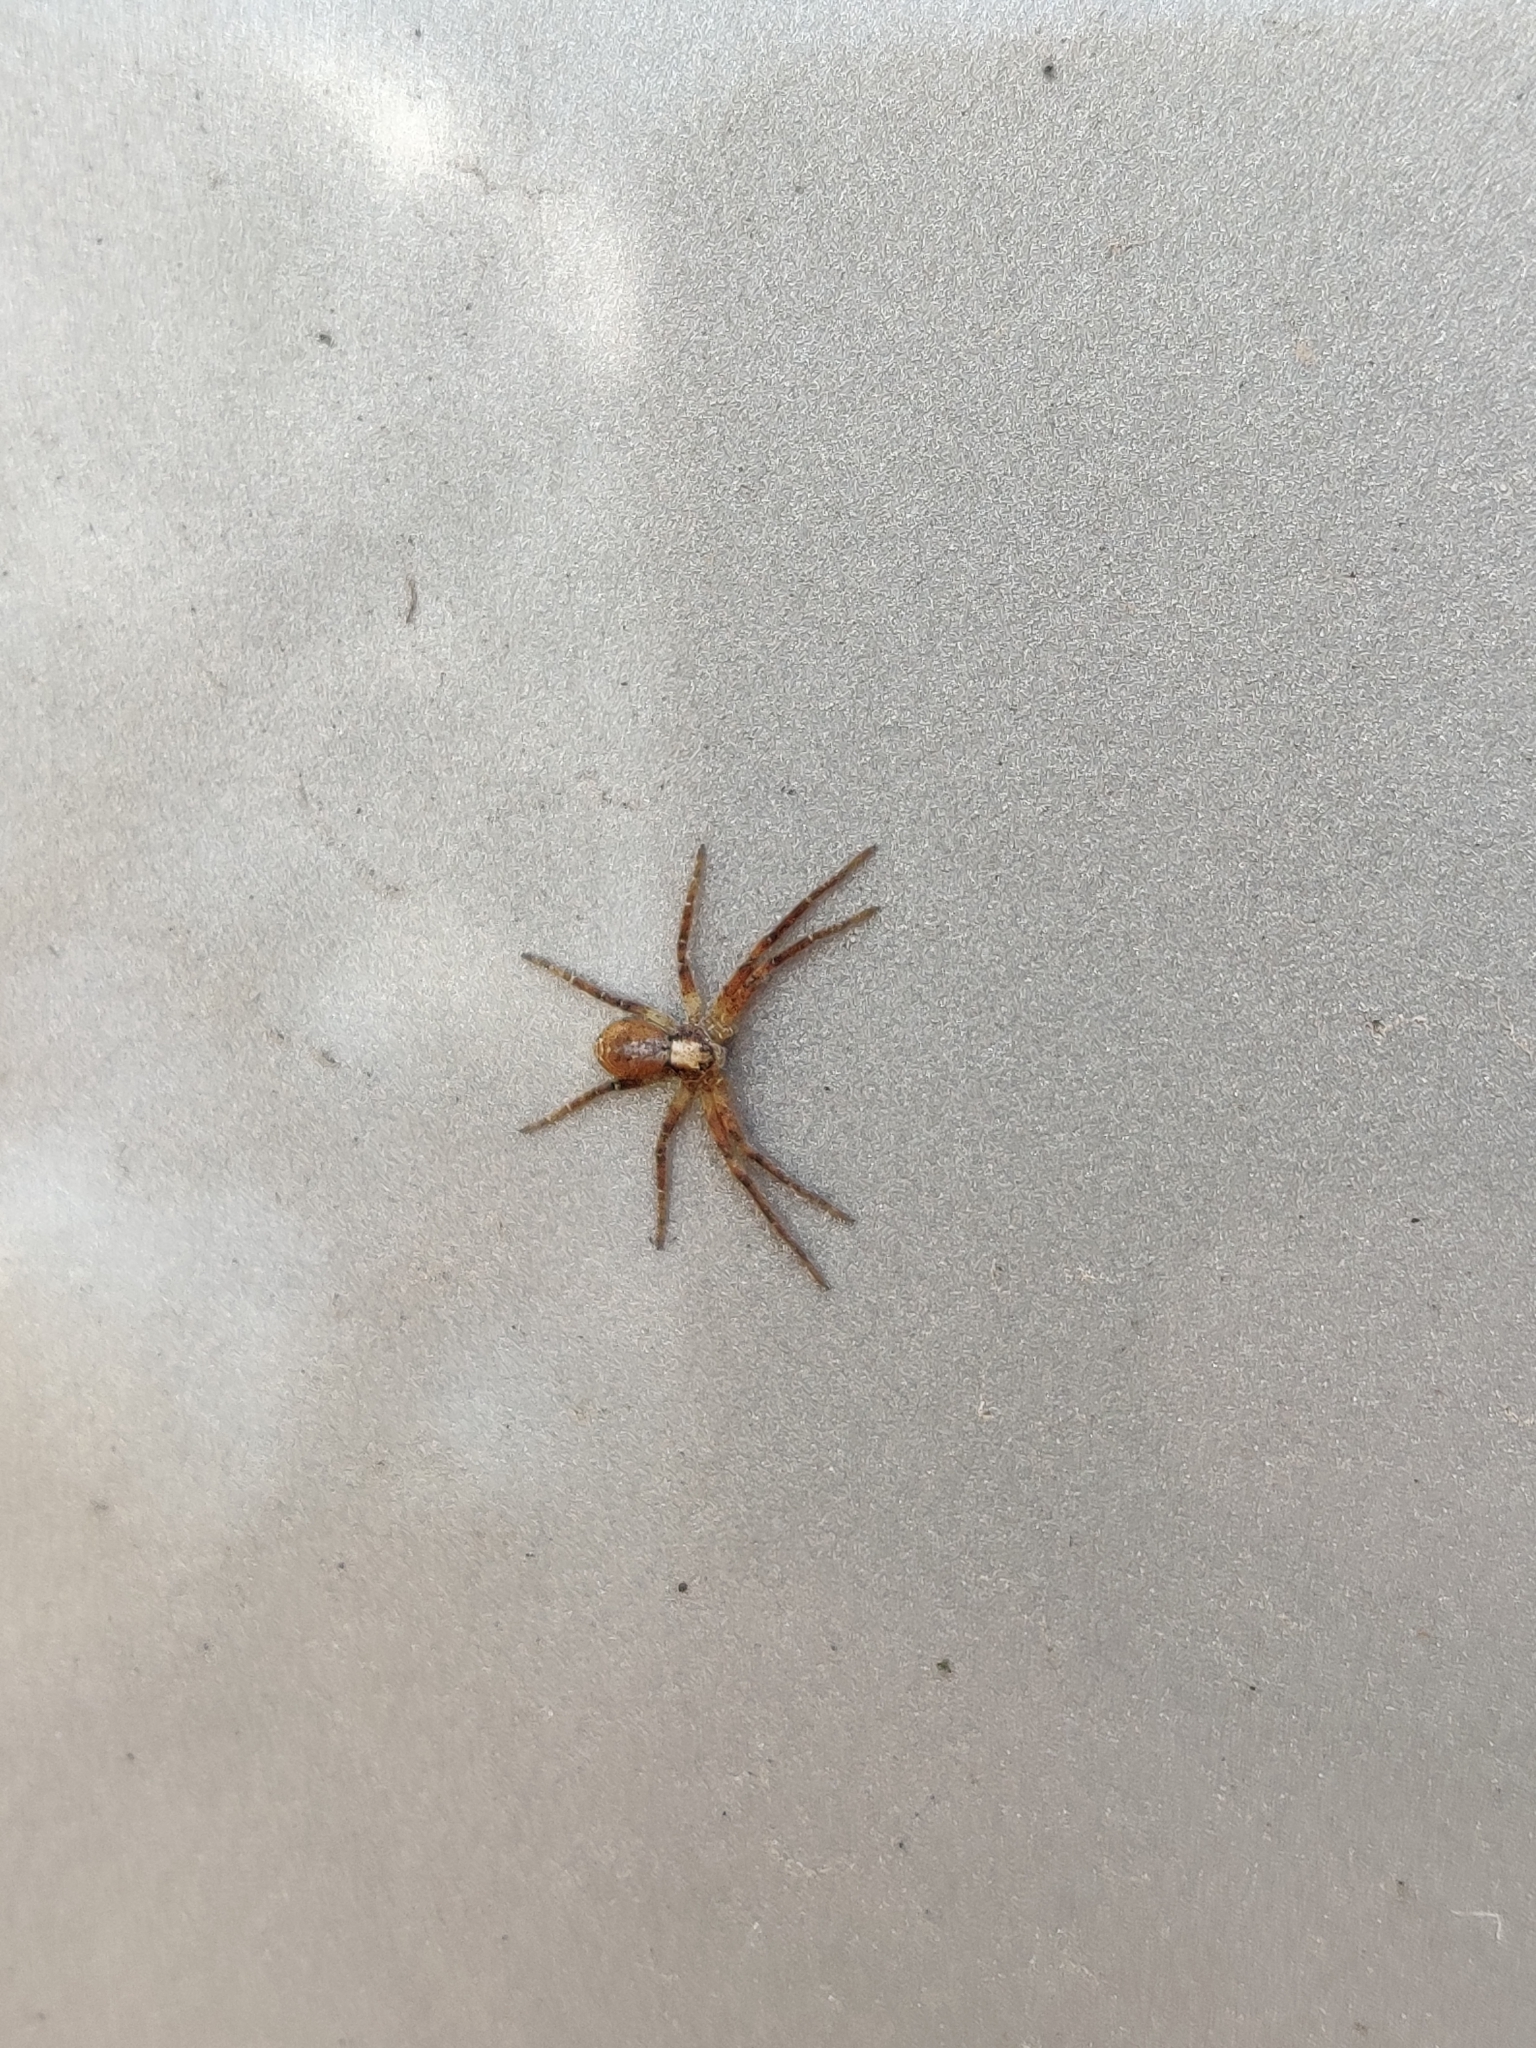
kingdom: Animalia
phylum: Arthropoda
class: Arachnida
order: Araneae
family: Philodromidae
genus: Philodromus
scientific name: Philodromus
